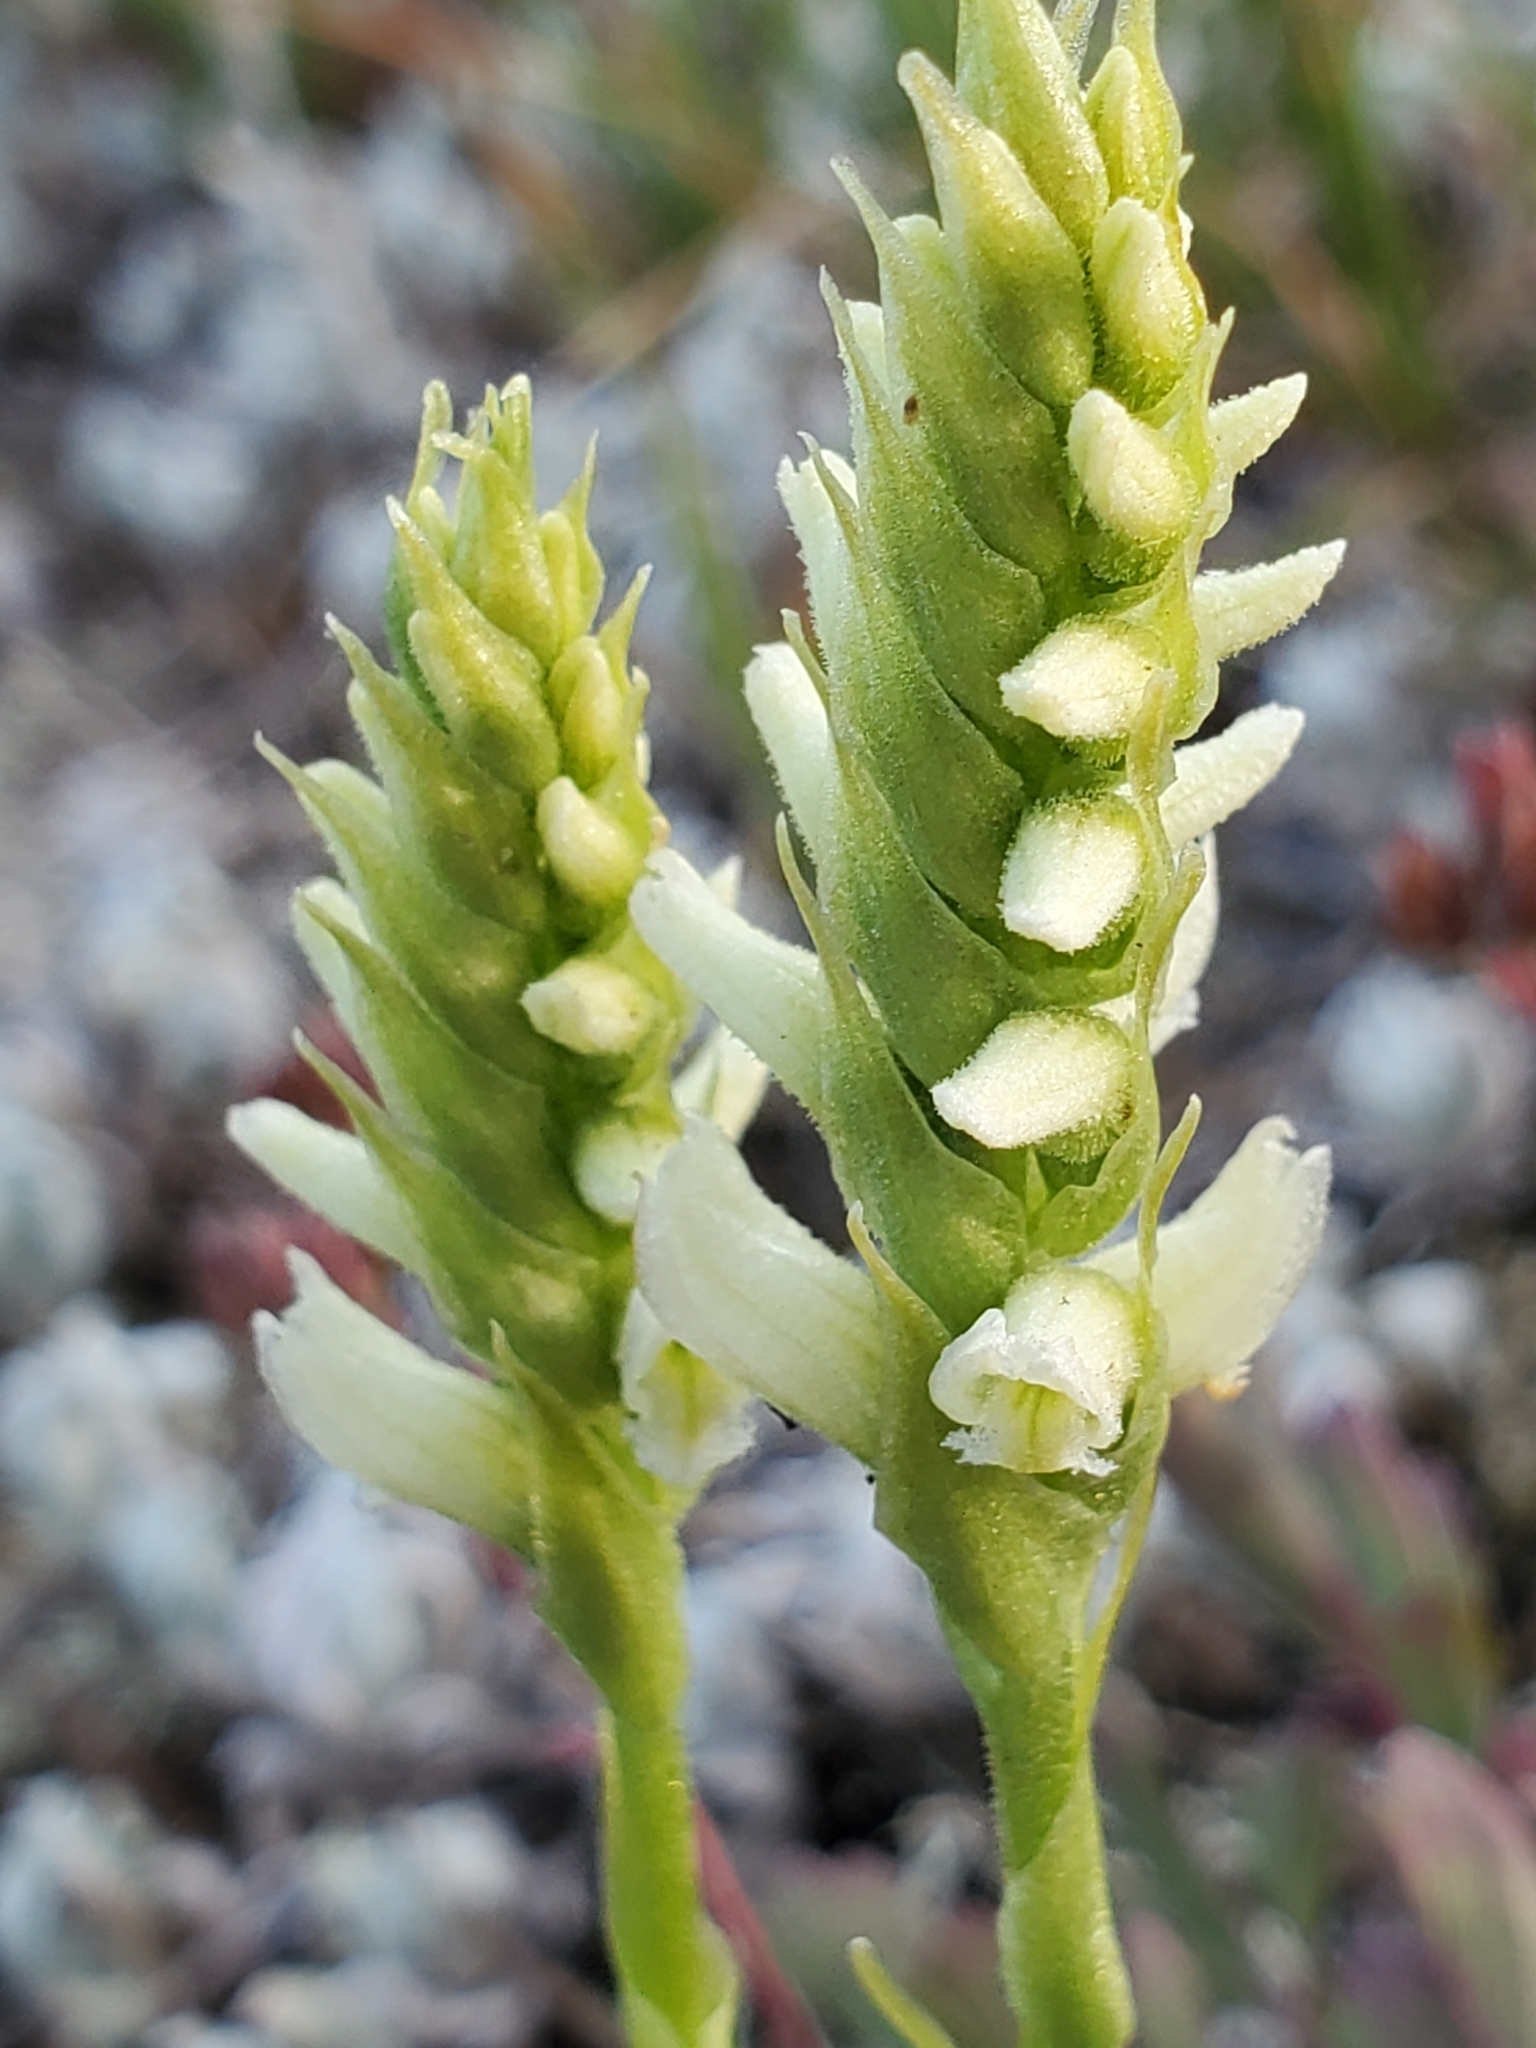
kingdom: Plantae
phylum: Tracheophyta
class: Liliopsida
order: Asparagales
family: Orchidaceae
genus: Spiranthes
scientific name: Spiranthes romanzoffiana
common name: Irish lady's-tresses
